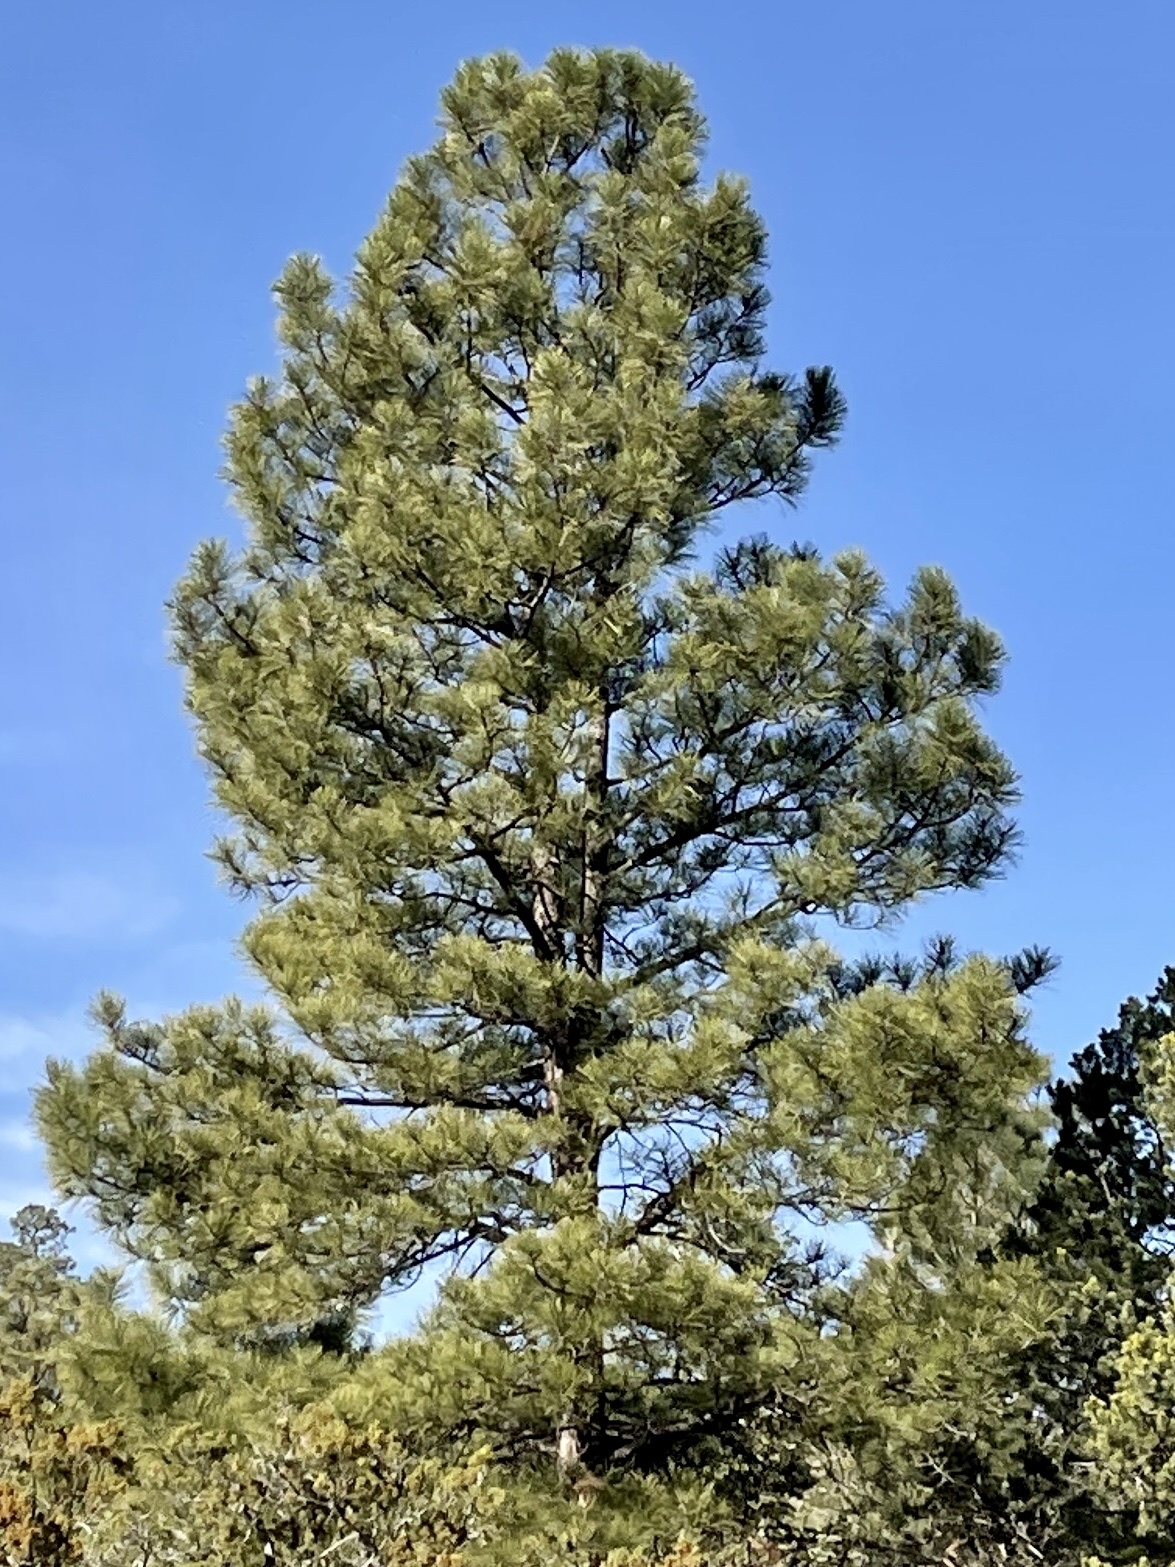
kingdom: Plantae
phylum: Tracheophyta
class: Pinopsida
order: Pinales
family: Pinaceae
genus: Pinus
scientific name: Pinus ponderosa
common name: Western yellow-pine
